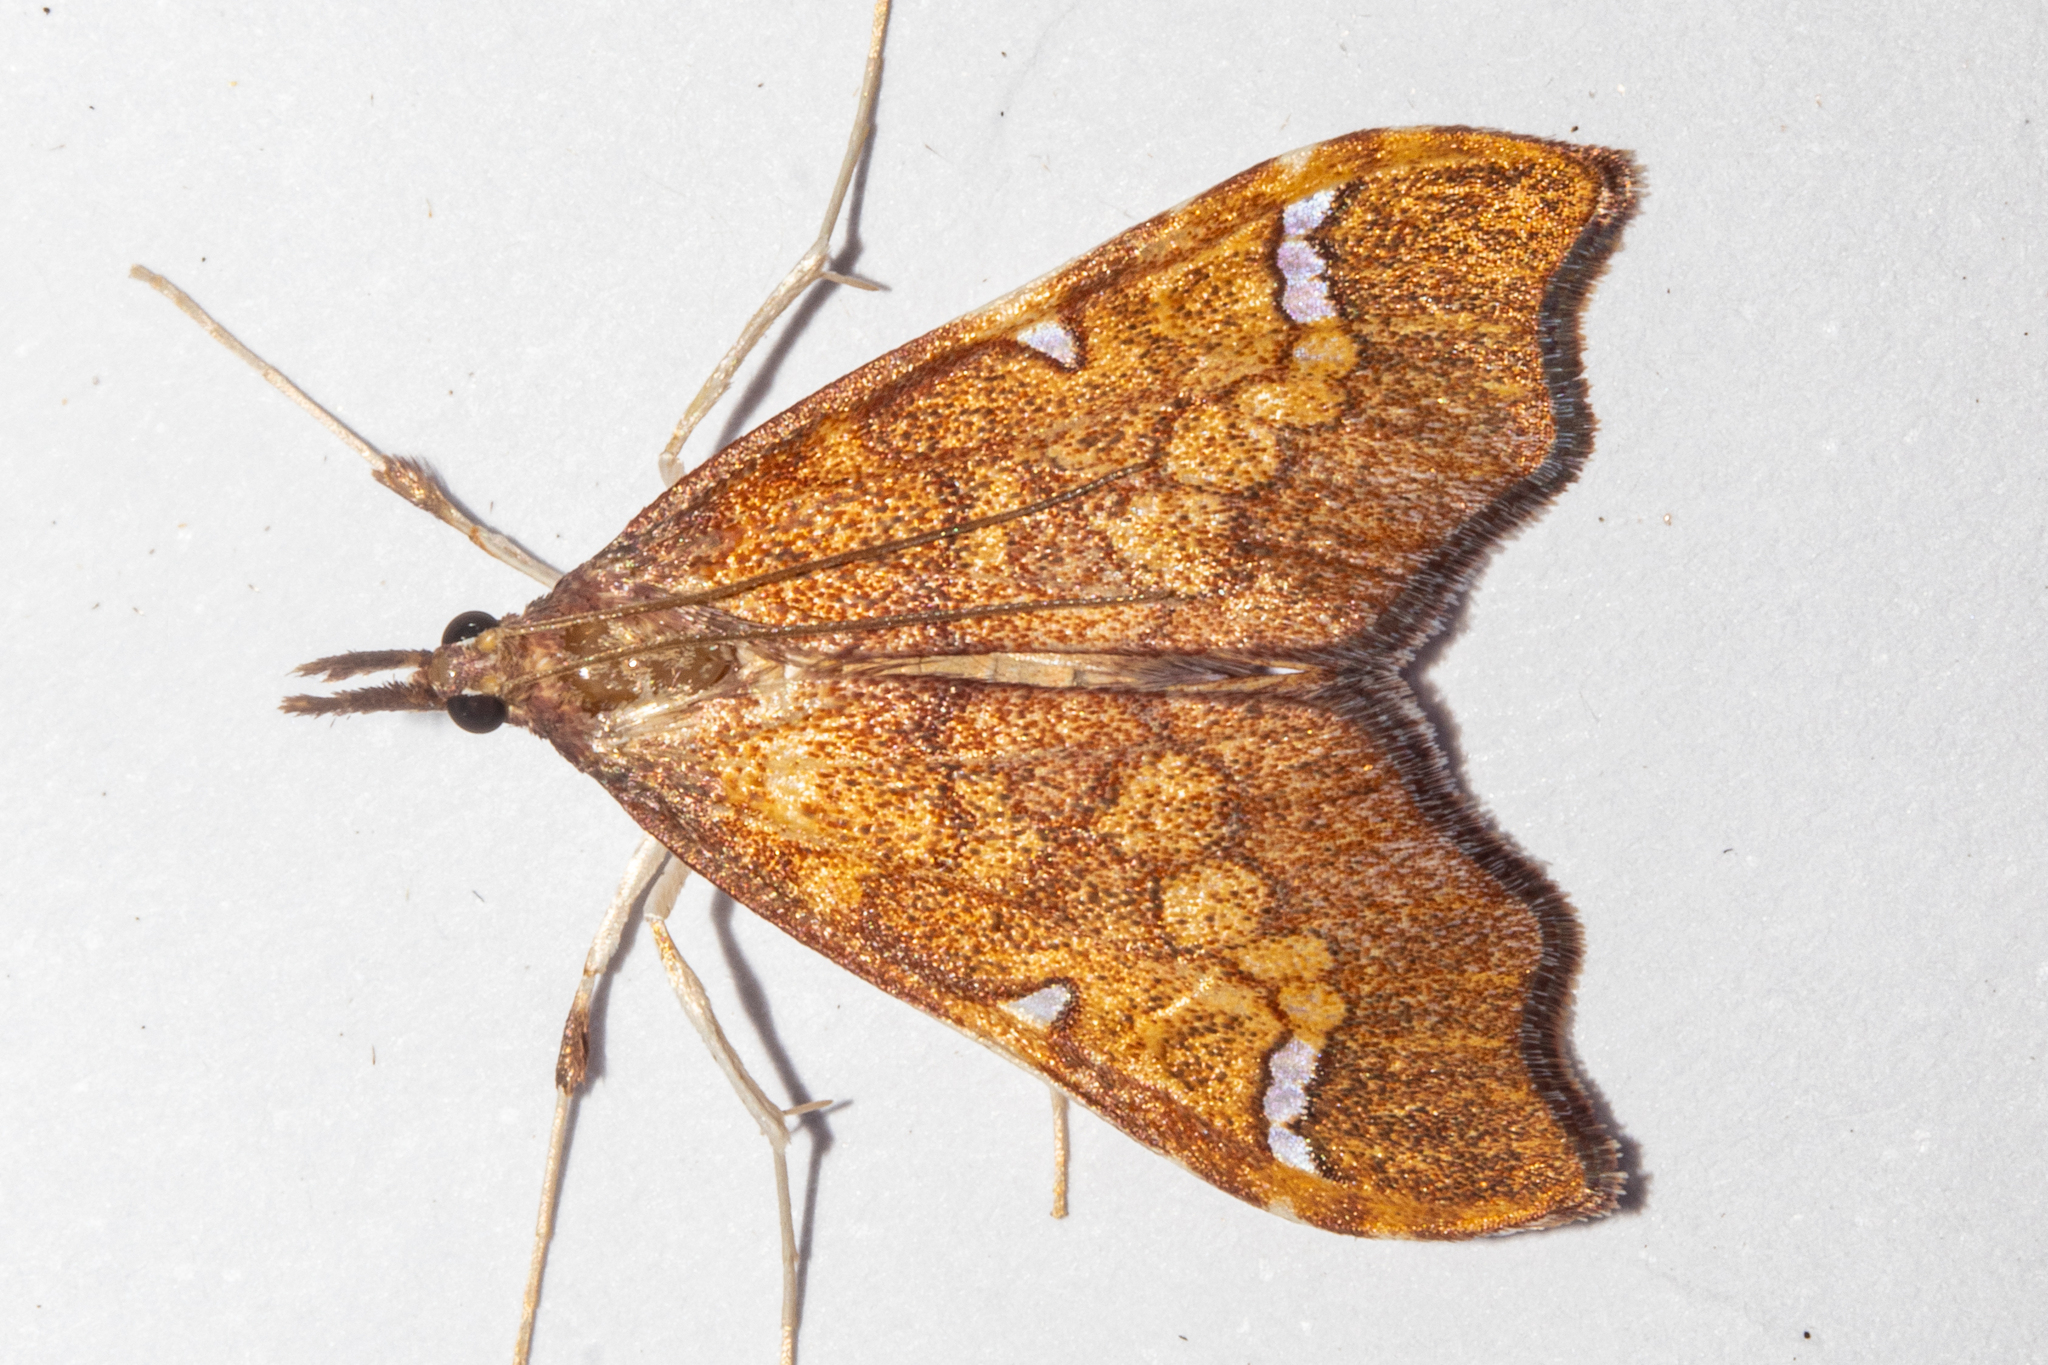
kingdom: Animalia
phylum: Arthropoda
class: Insecta
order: Lepidoptera
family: Crambidae
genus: Deana
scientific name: Deana hybreasalis
